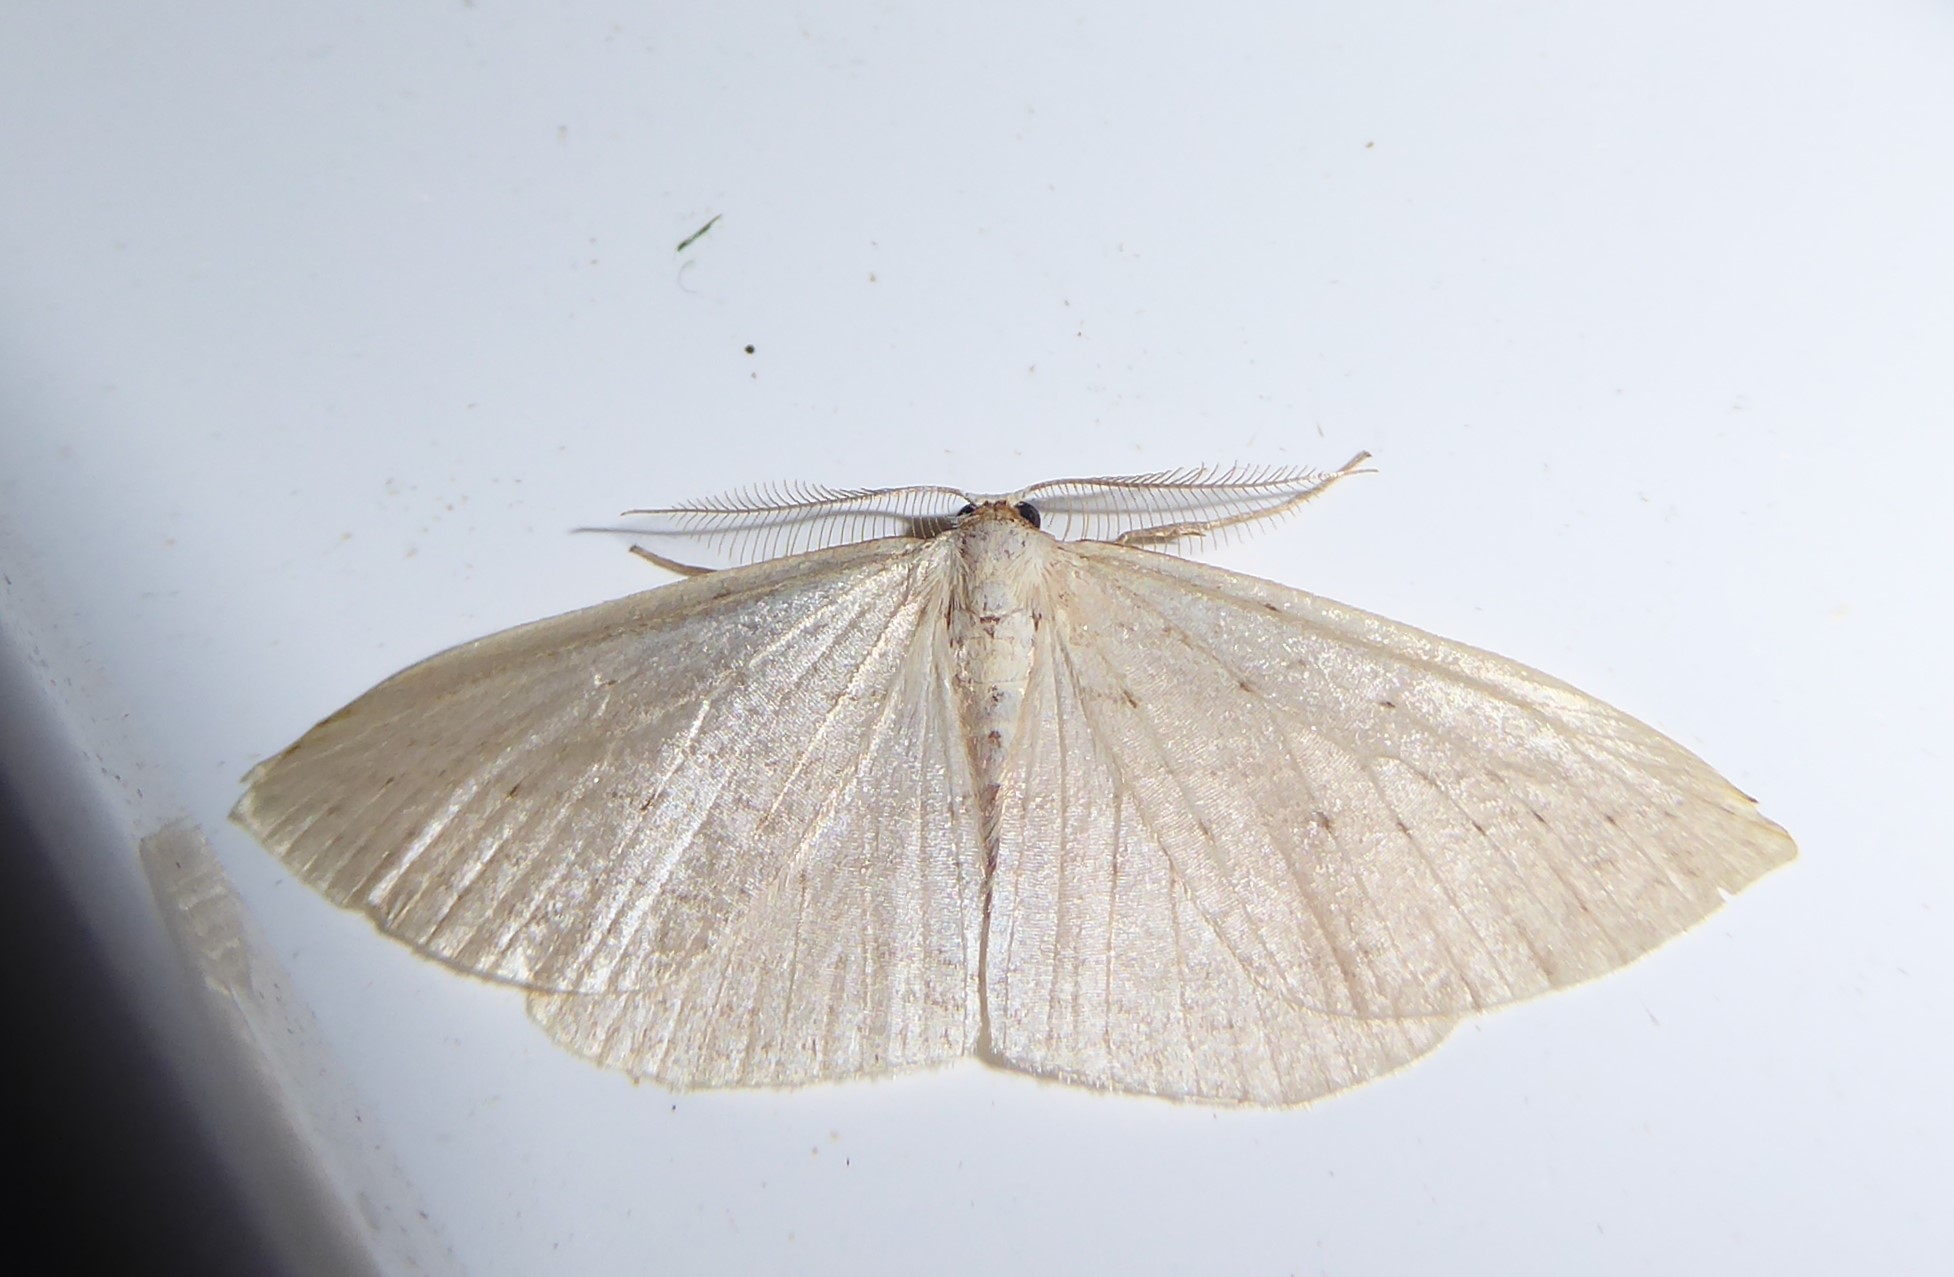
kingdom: Animalia
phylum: Arthropoda
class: Insecta
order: Lepidoptera
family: Geometridae
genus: Orthoclydon
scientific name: Orthoclydon praefectata
